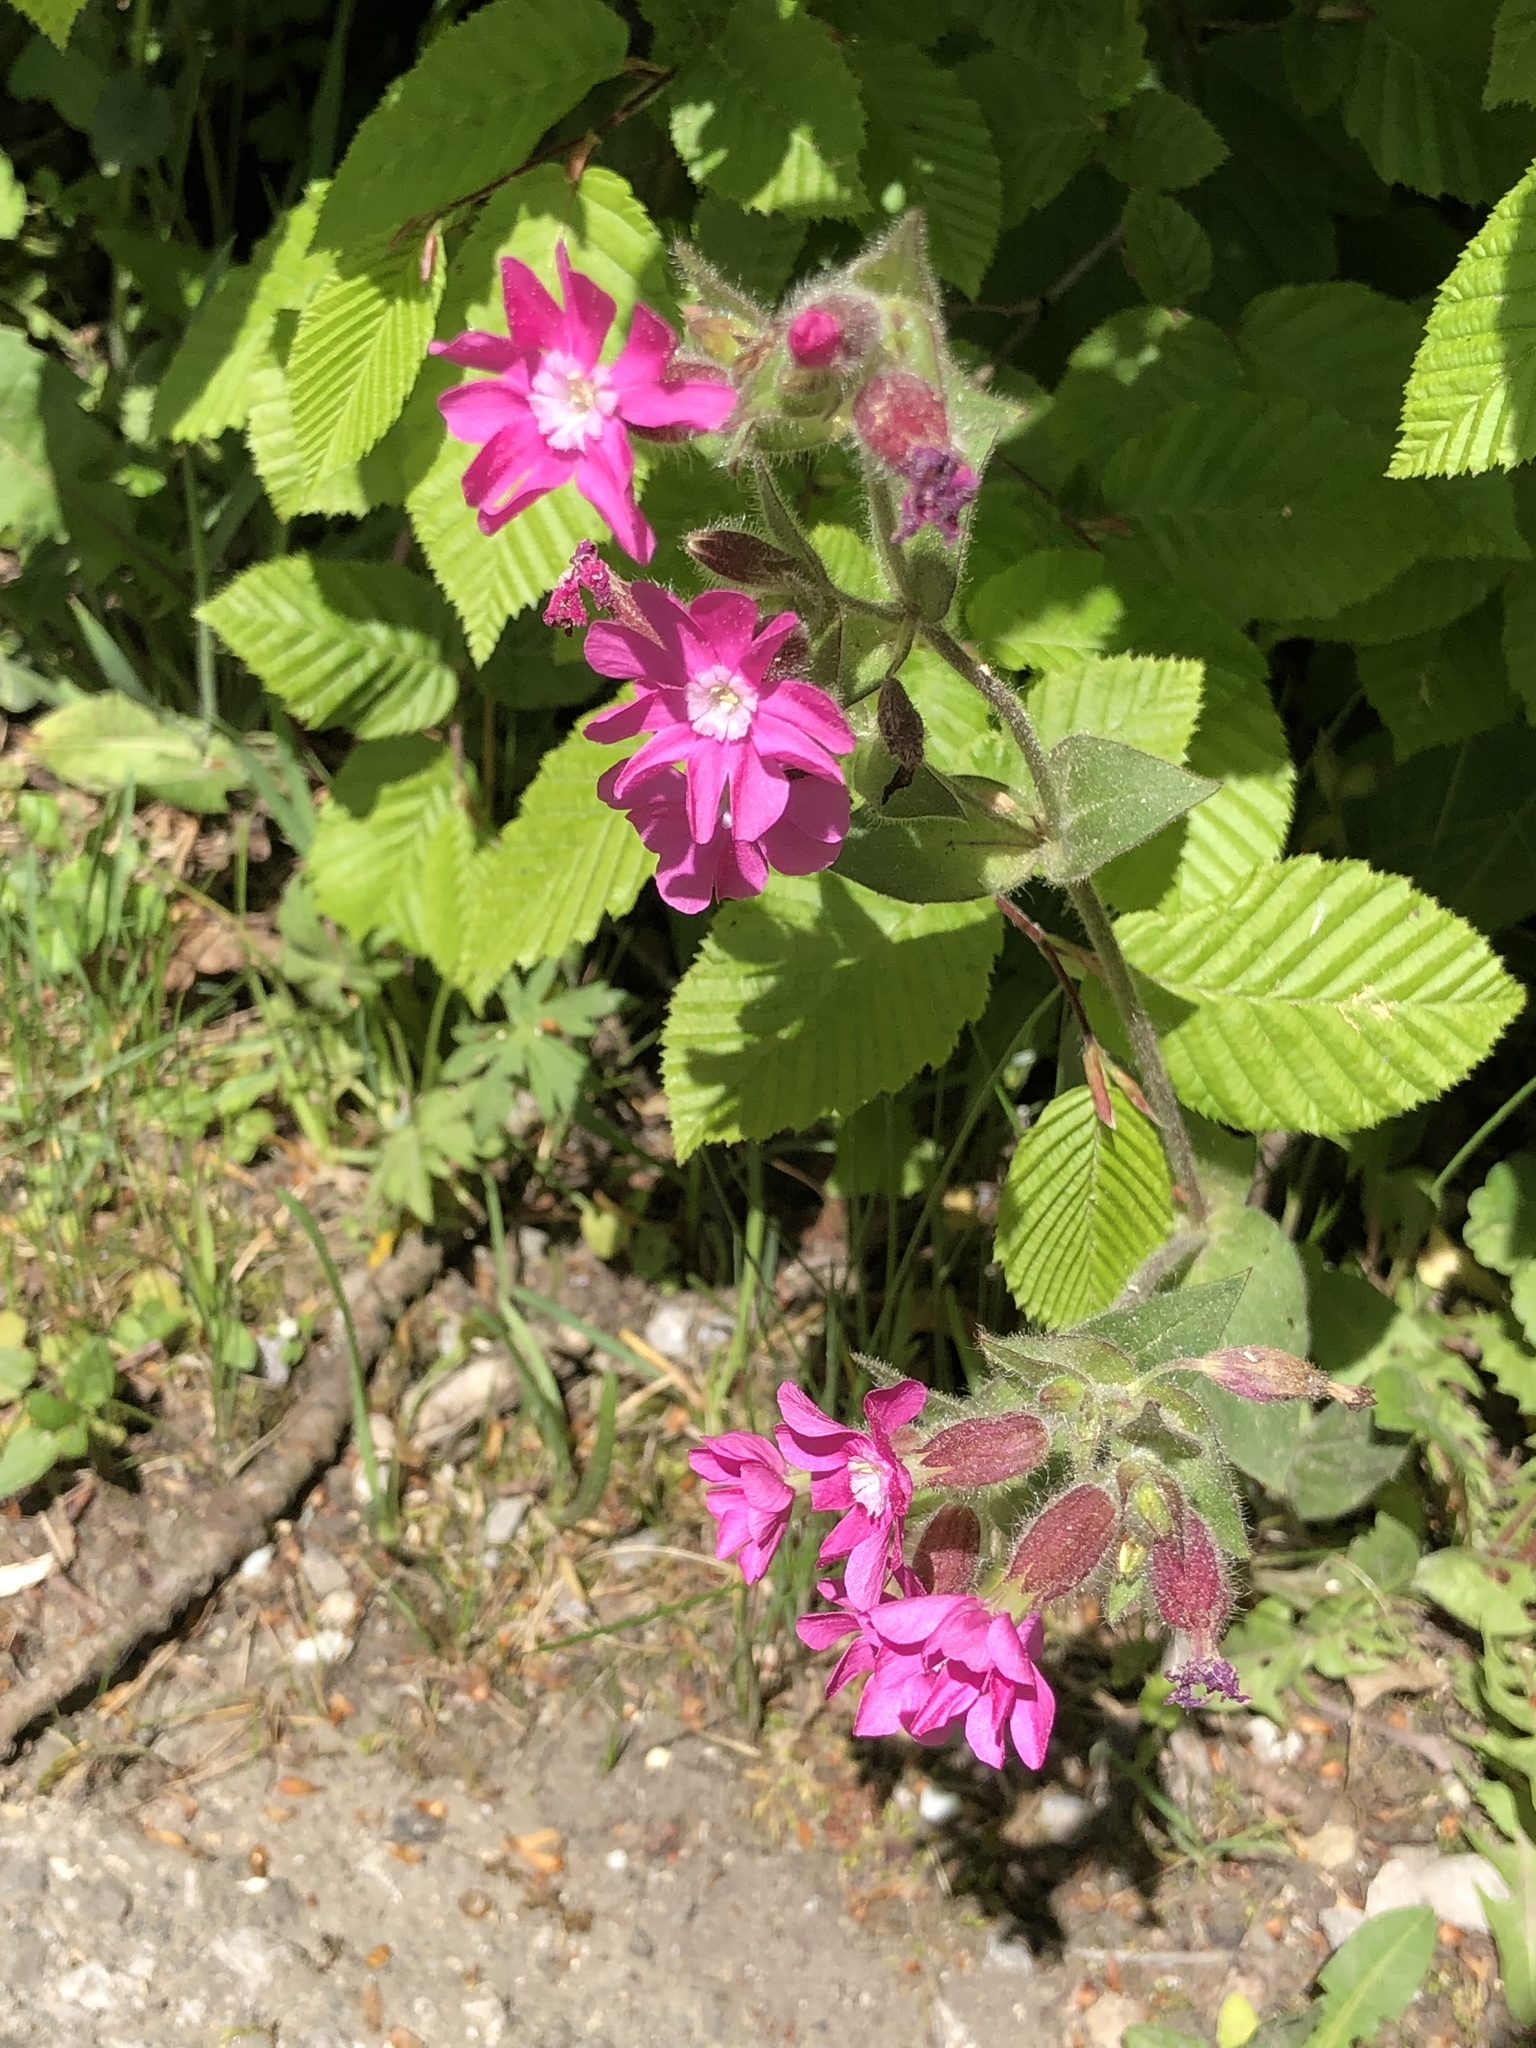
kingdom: Plantae
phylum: Tracheophyta
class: Magnoliopsida
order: Caryophyllales
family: Caryophyllaceae
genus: Silene
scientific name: Silene dioica
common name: Red campion
